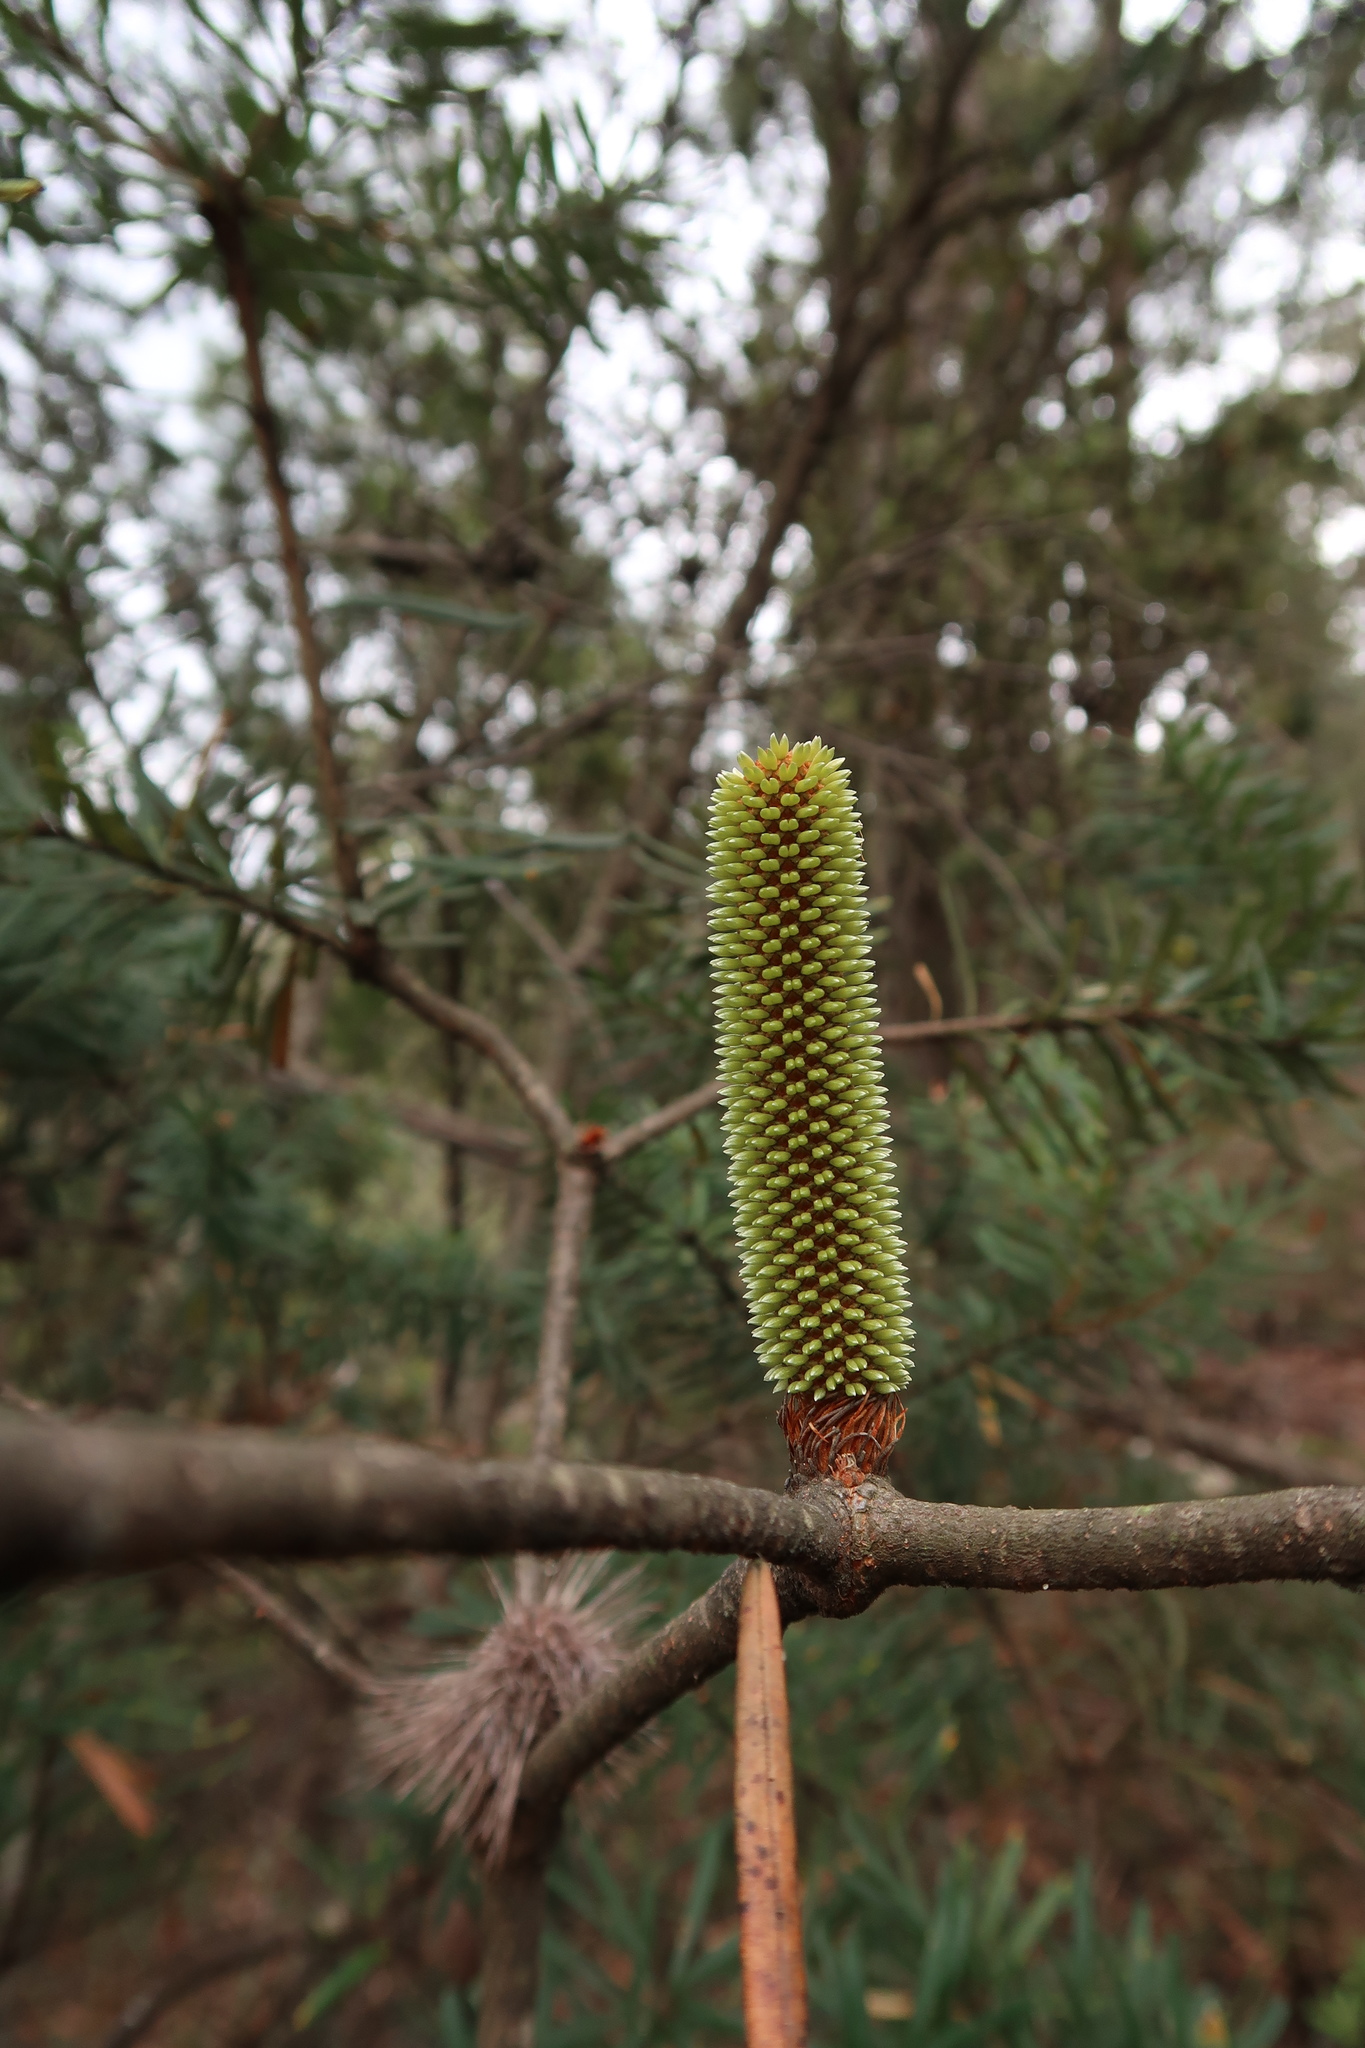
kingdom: Plantae
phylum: Tracheophyta
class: Magnoliopsida
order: Proteales
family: Proteaceae
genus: Banksia
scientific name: Banksia marginata
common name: Silver banksia
